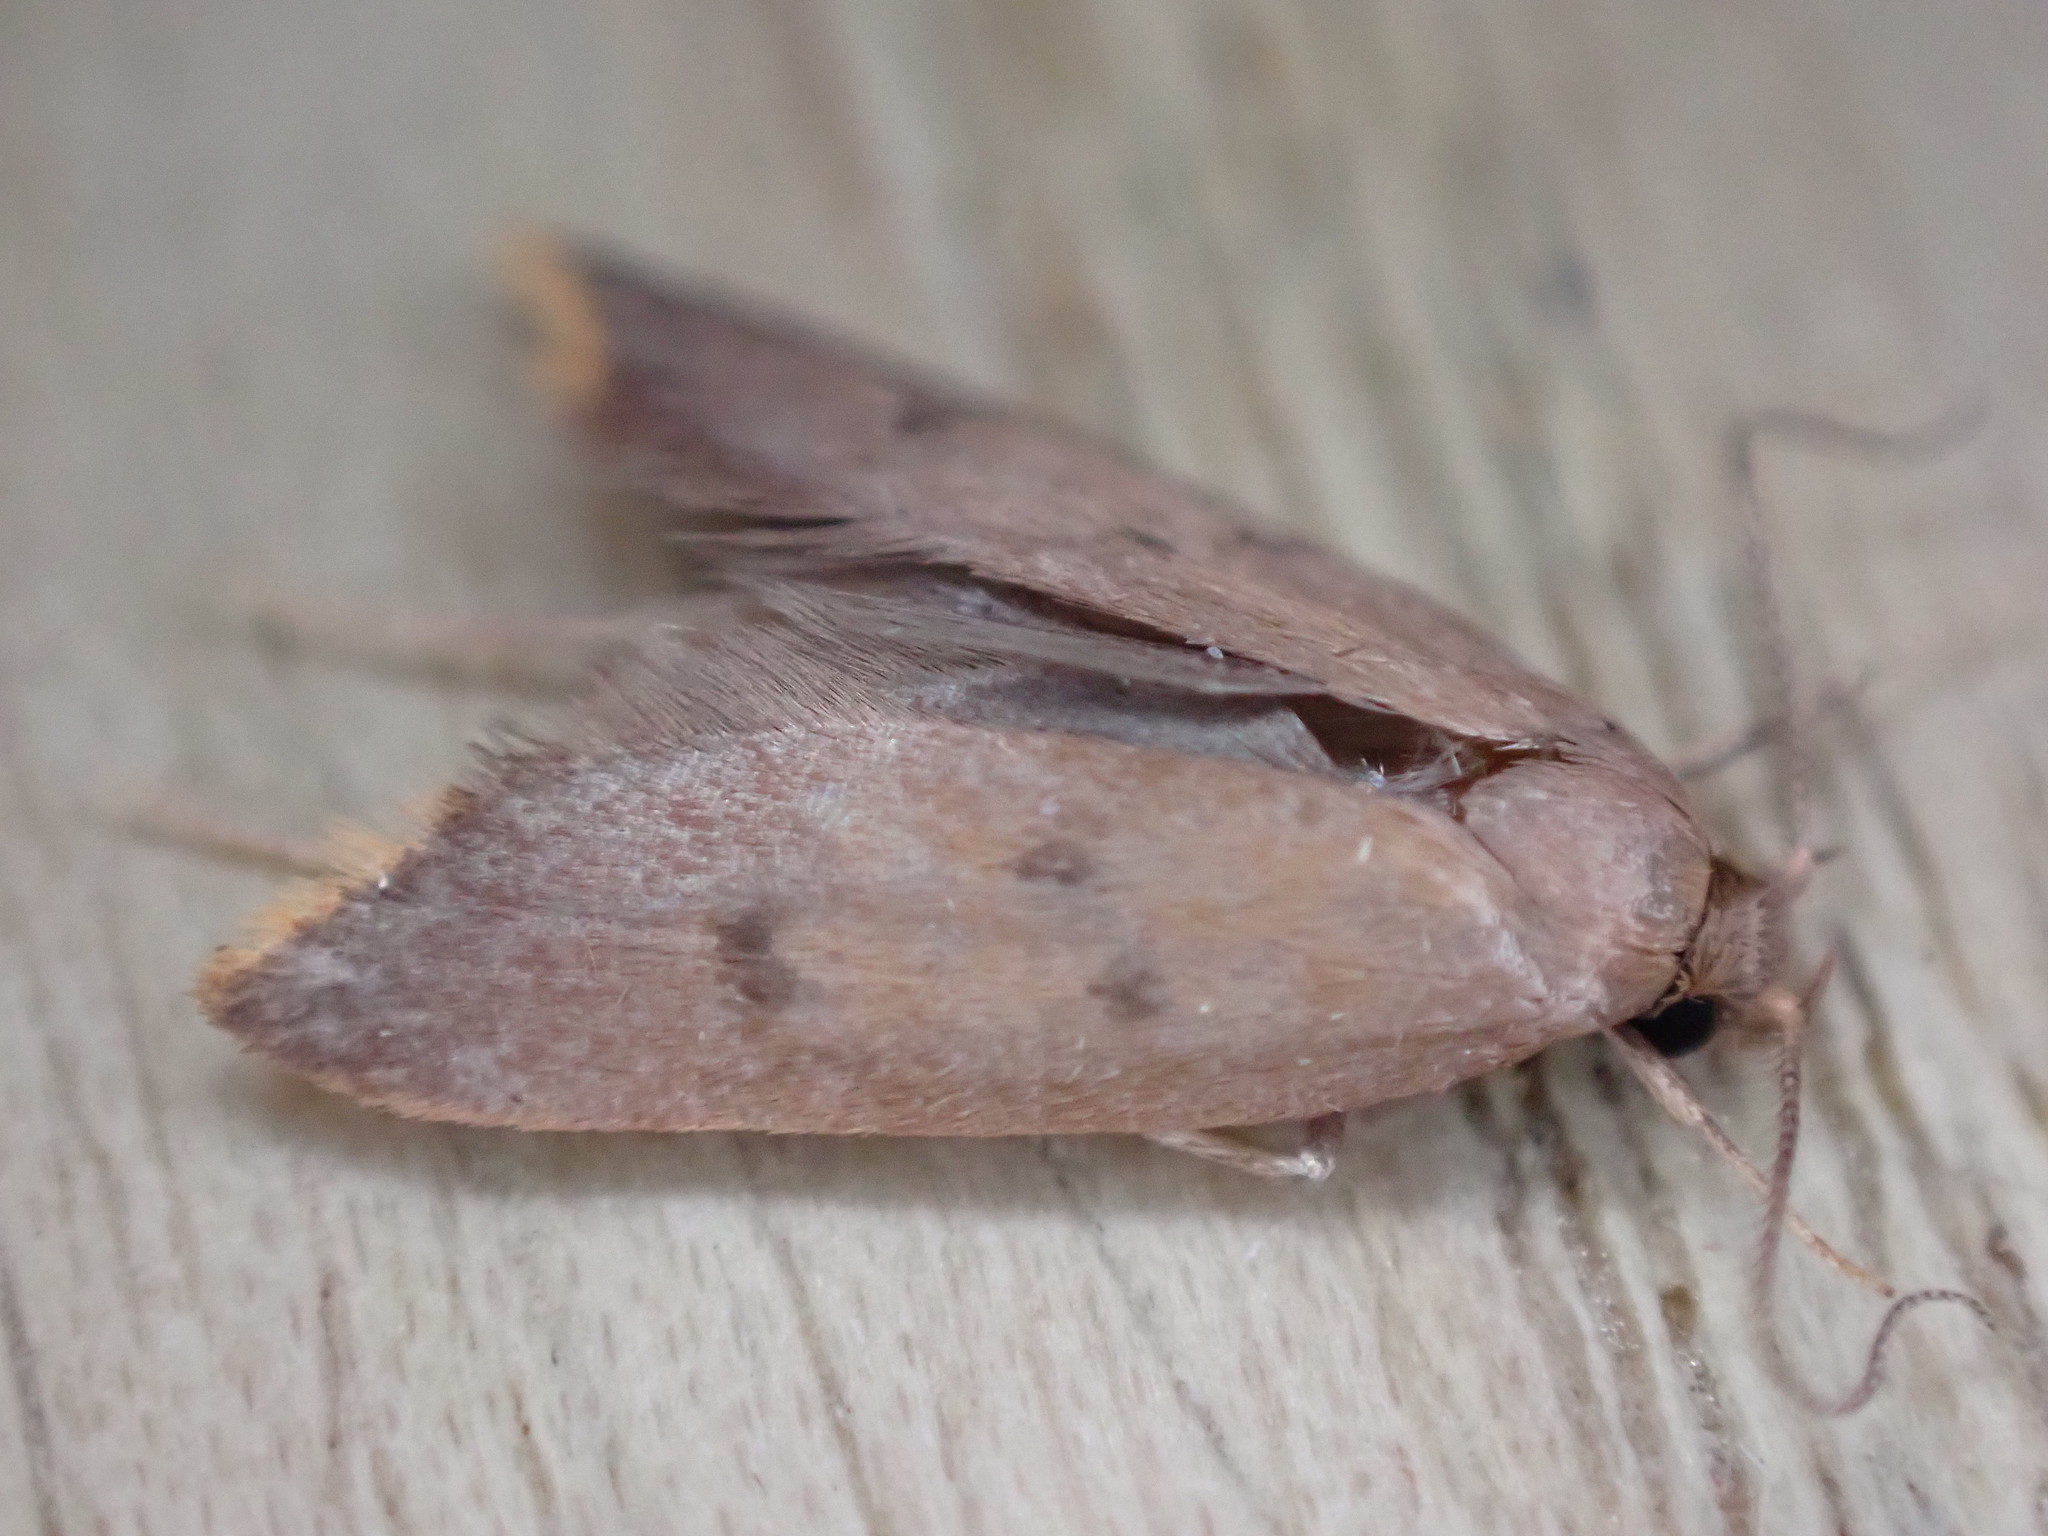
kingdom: Animalia
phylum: Arthropoda
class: Insecta
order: Lepidoptera
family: Oecophoridae
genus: Tachystola
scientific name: Tachystola acroxantha
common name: Ruddy streak
